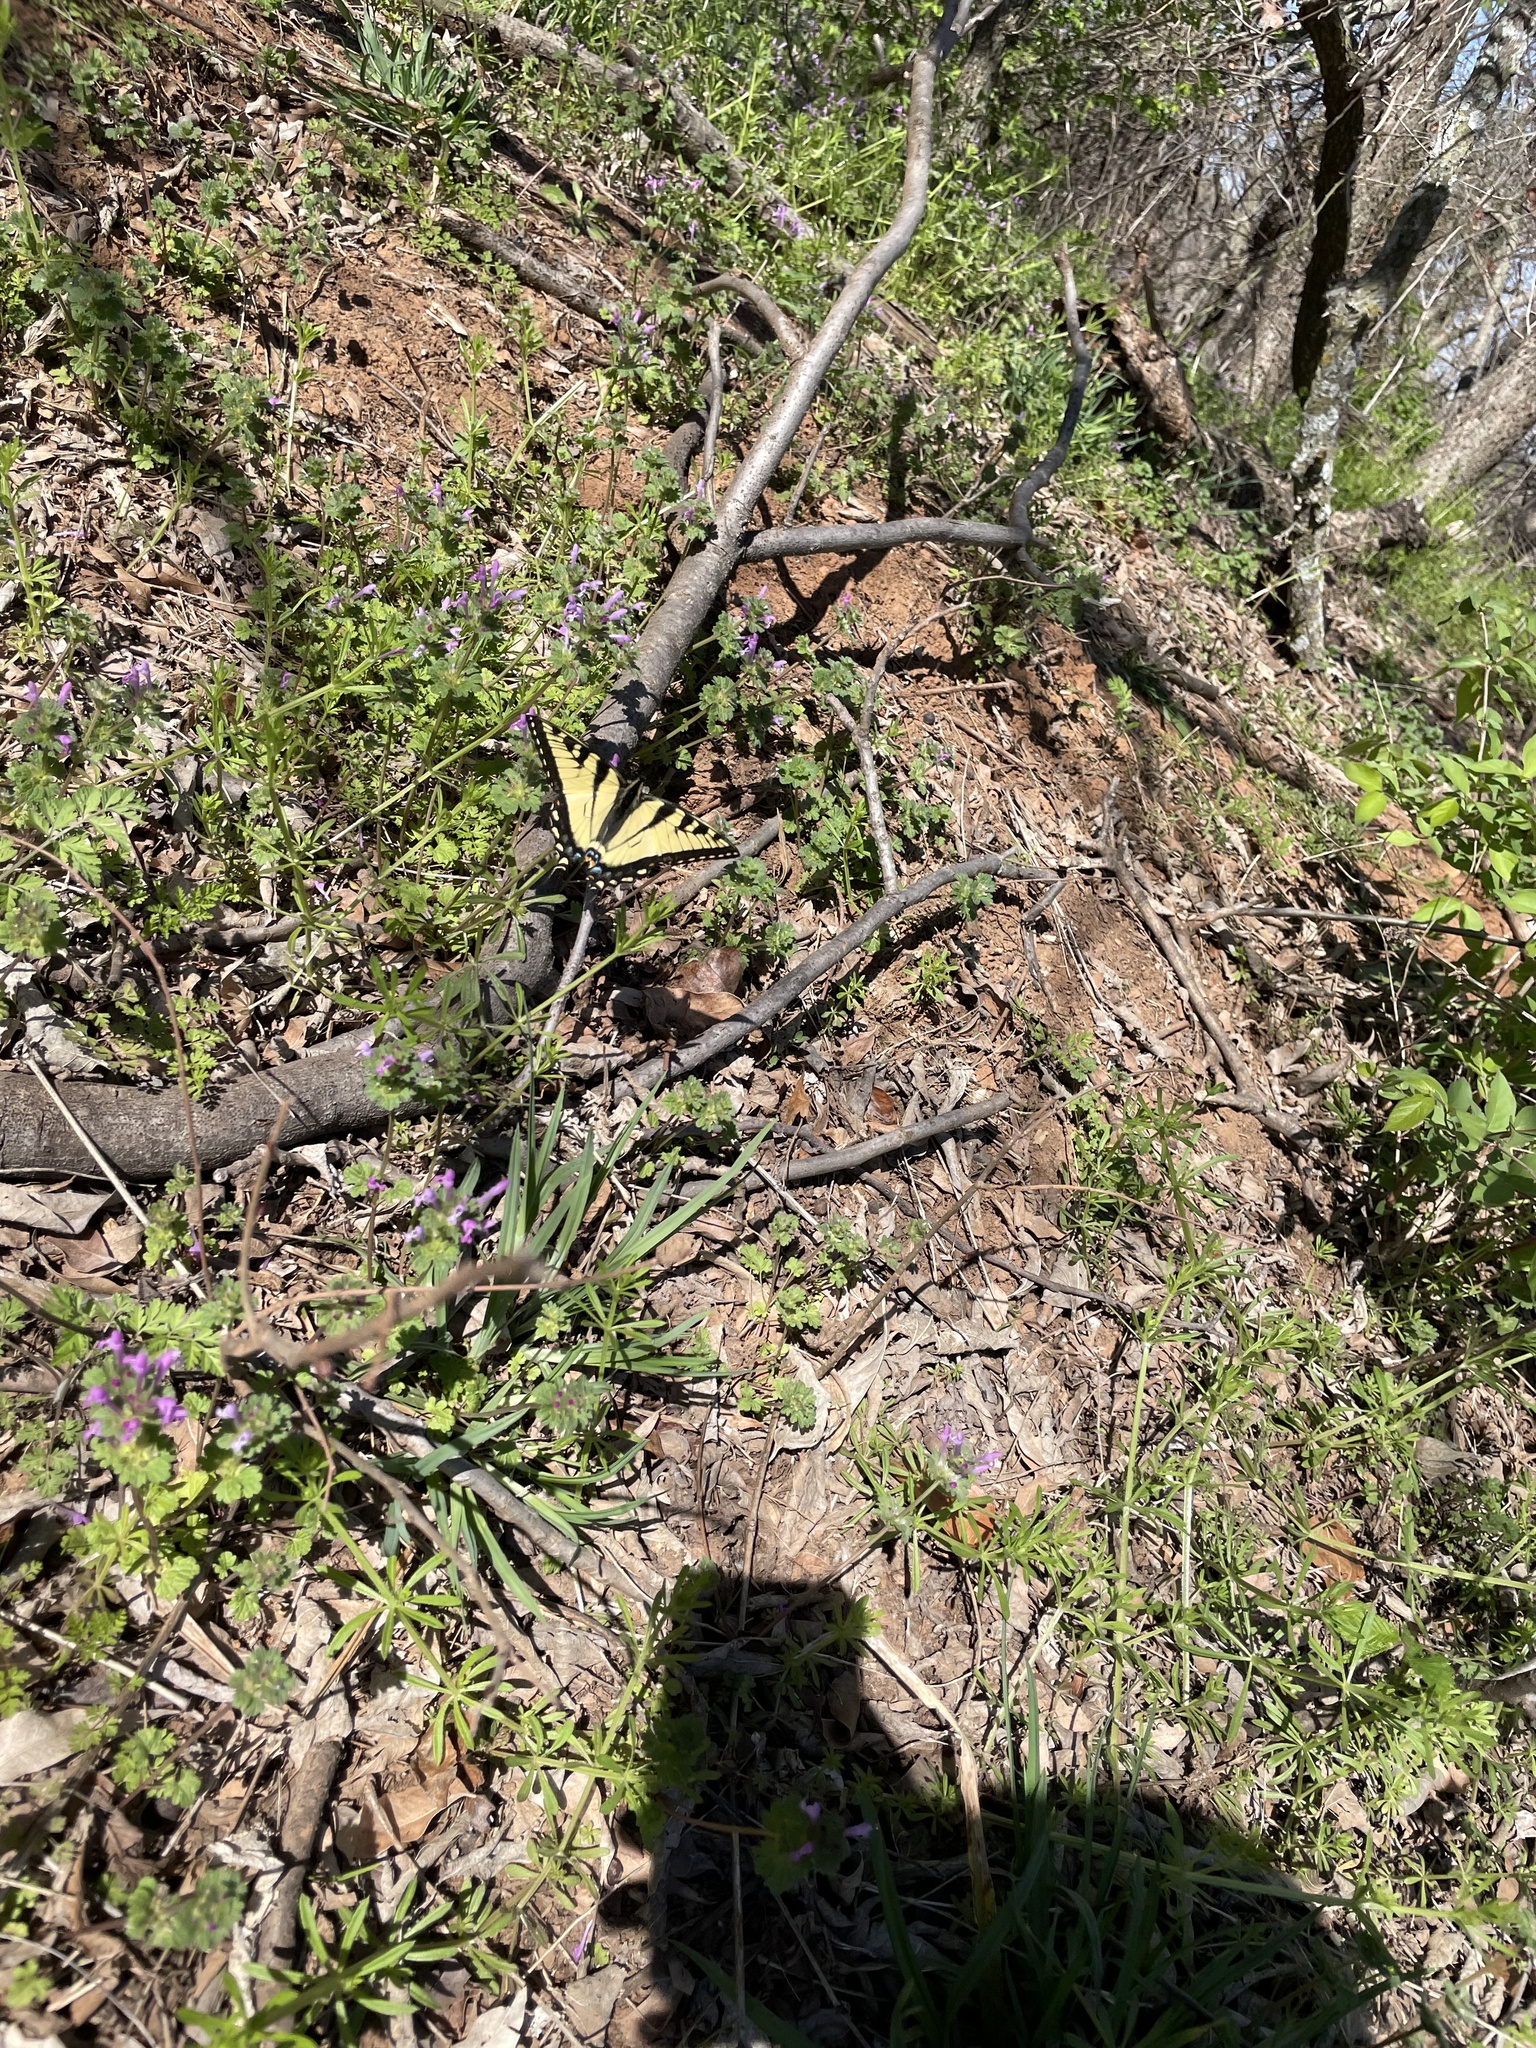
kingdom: Animalia
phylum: Arthropoda
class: Insecta
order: Lepidoptera
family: Papilionidae
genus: Papilio
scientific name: Papilio glaucus
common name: Tiger swallowtail
